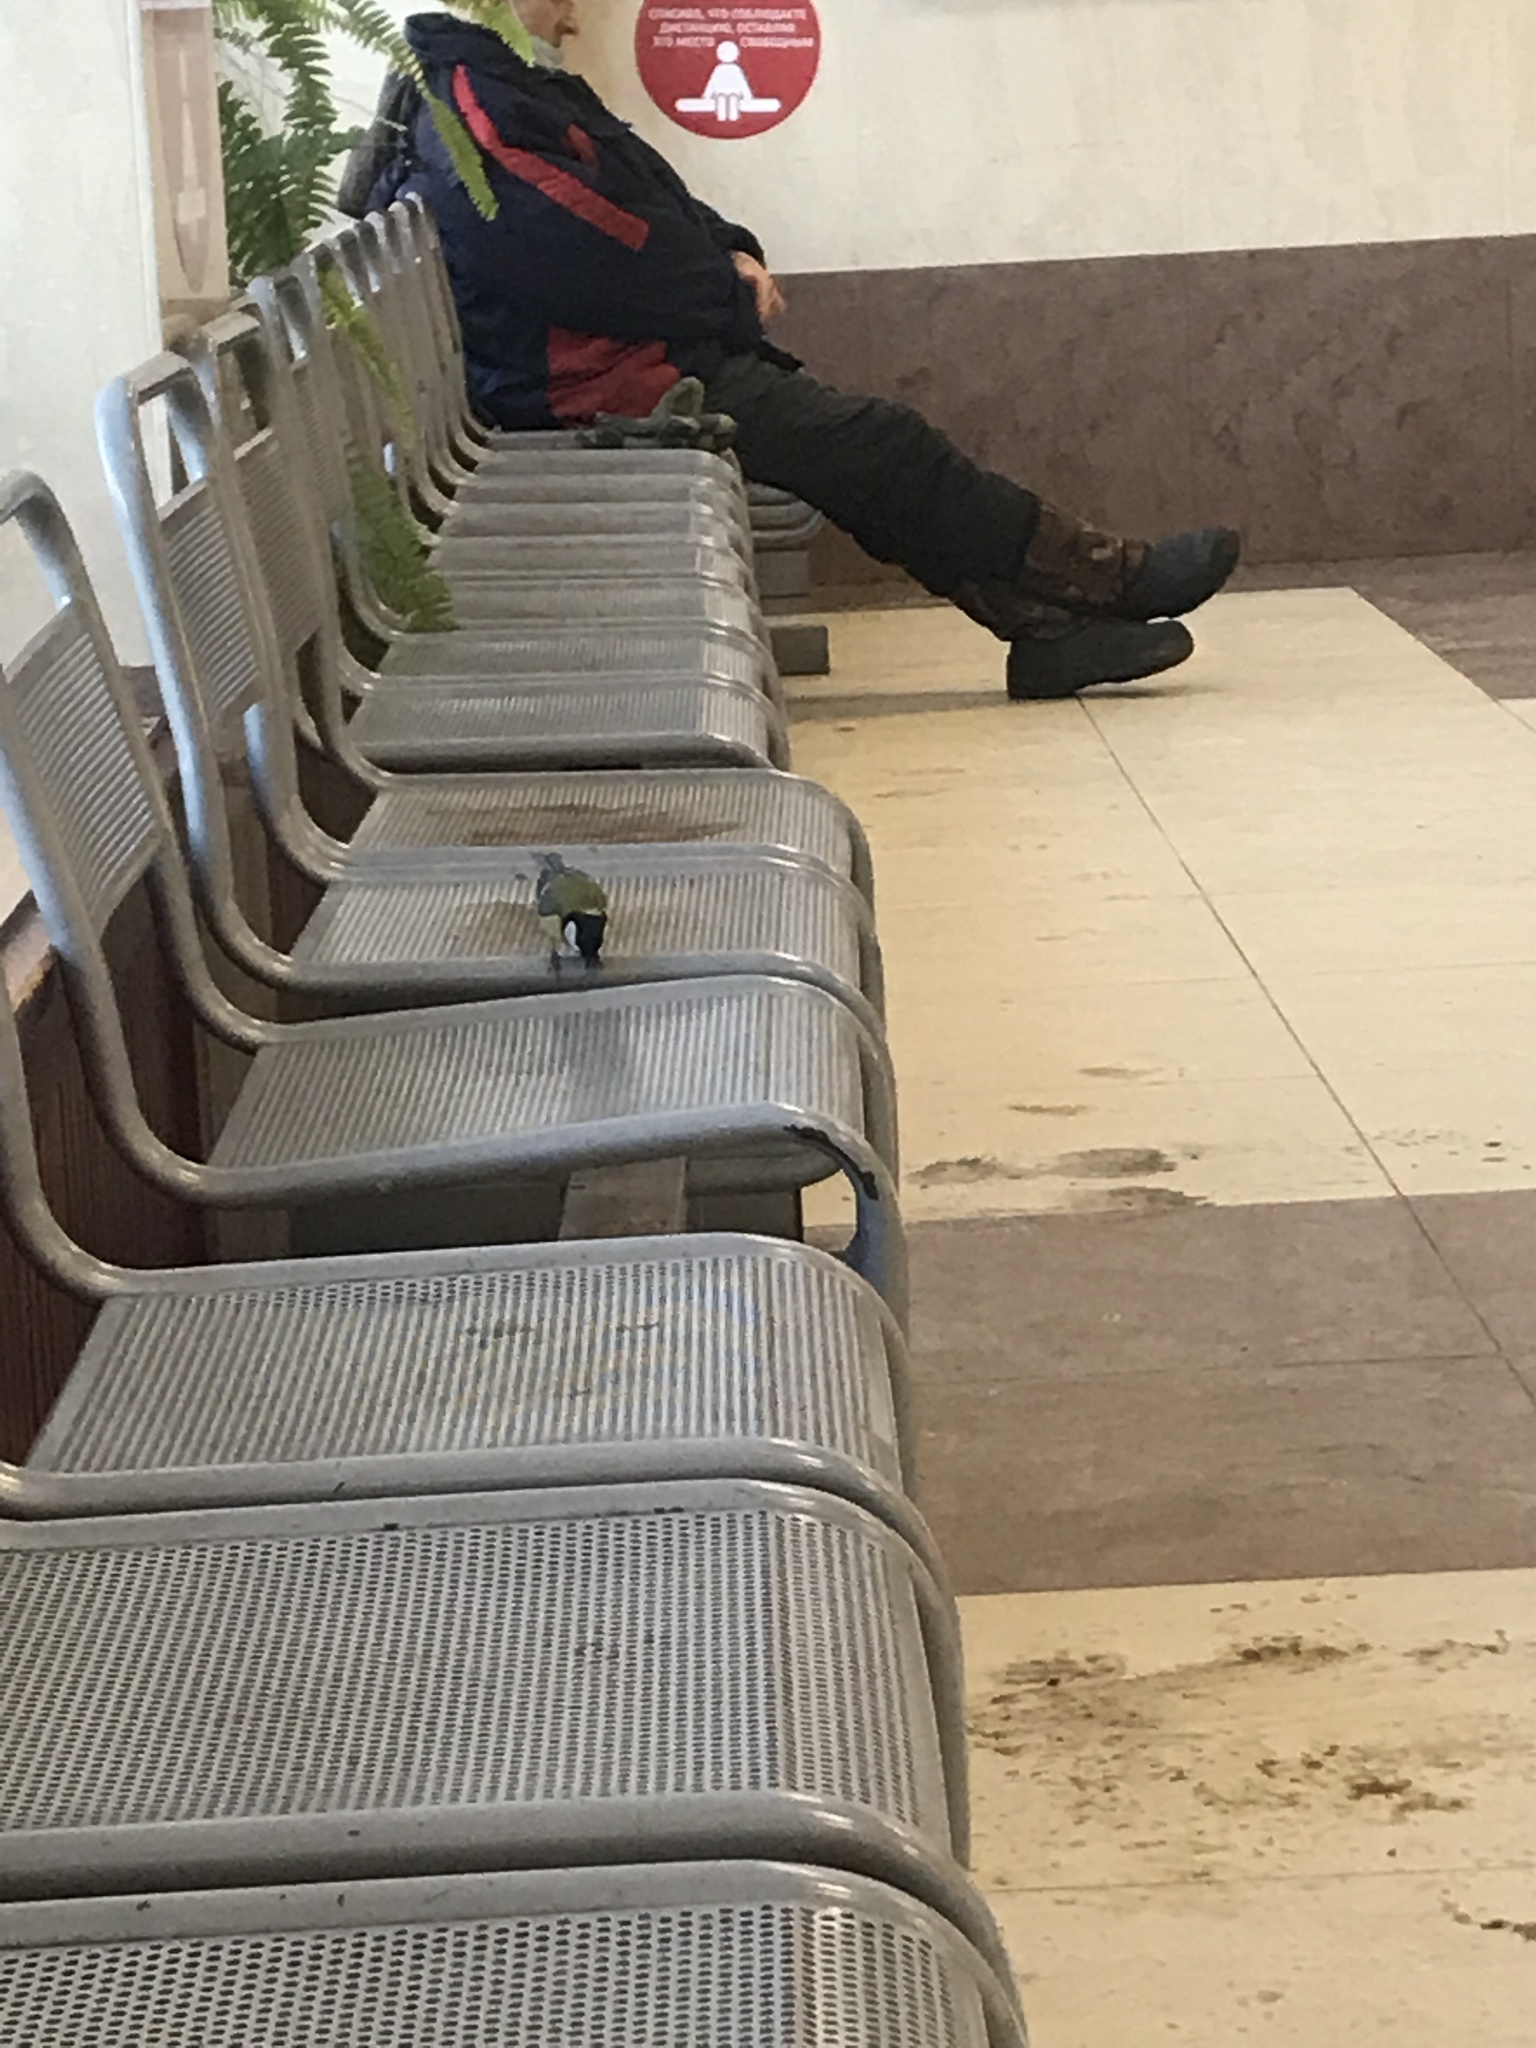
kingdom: Animalia
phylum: Chordata
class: Aves
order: Passeriformes
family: Paridae
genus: Parus
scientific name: Parus major
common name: Great tit
